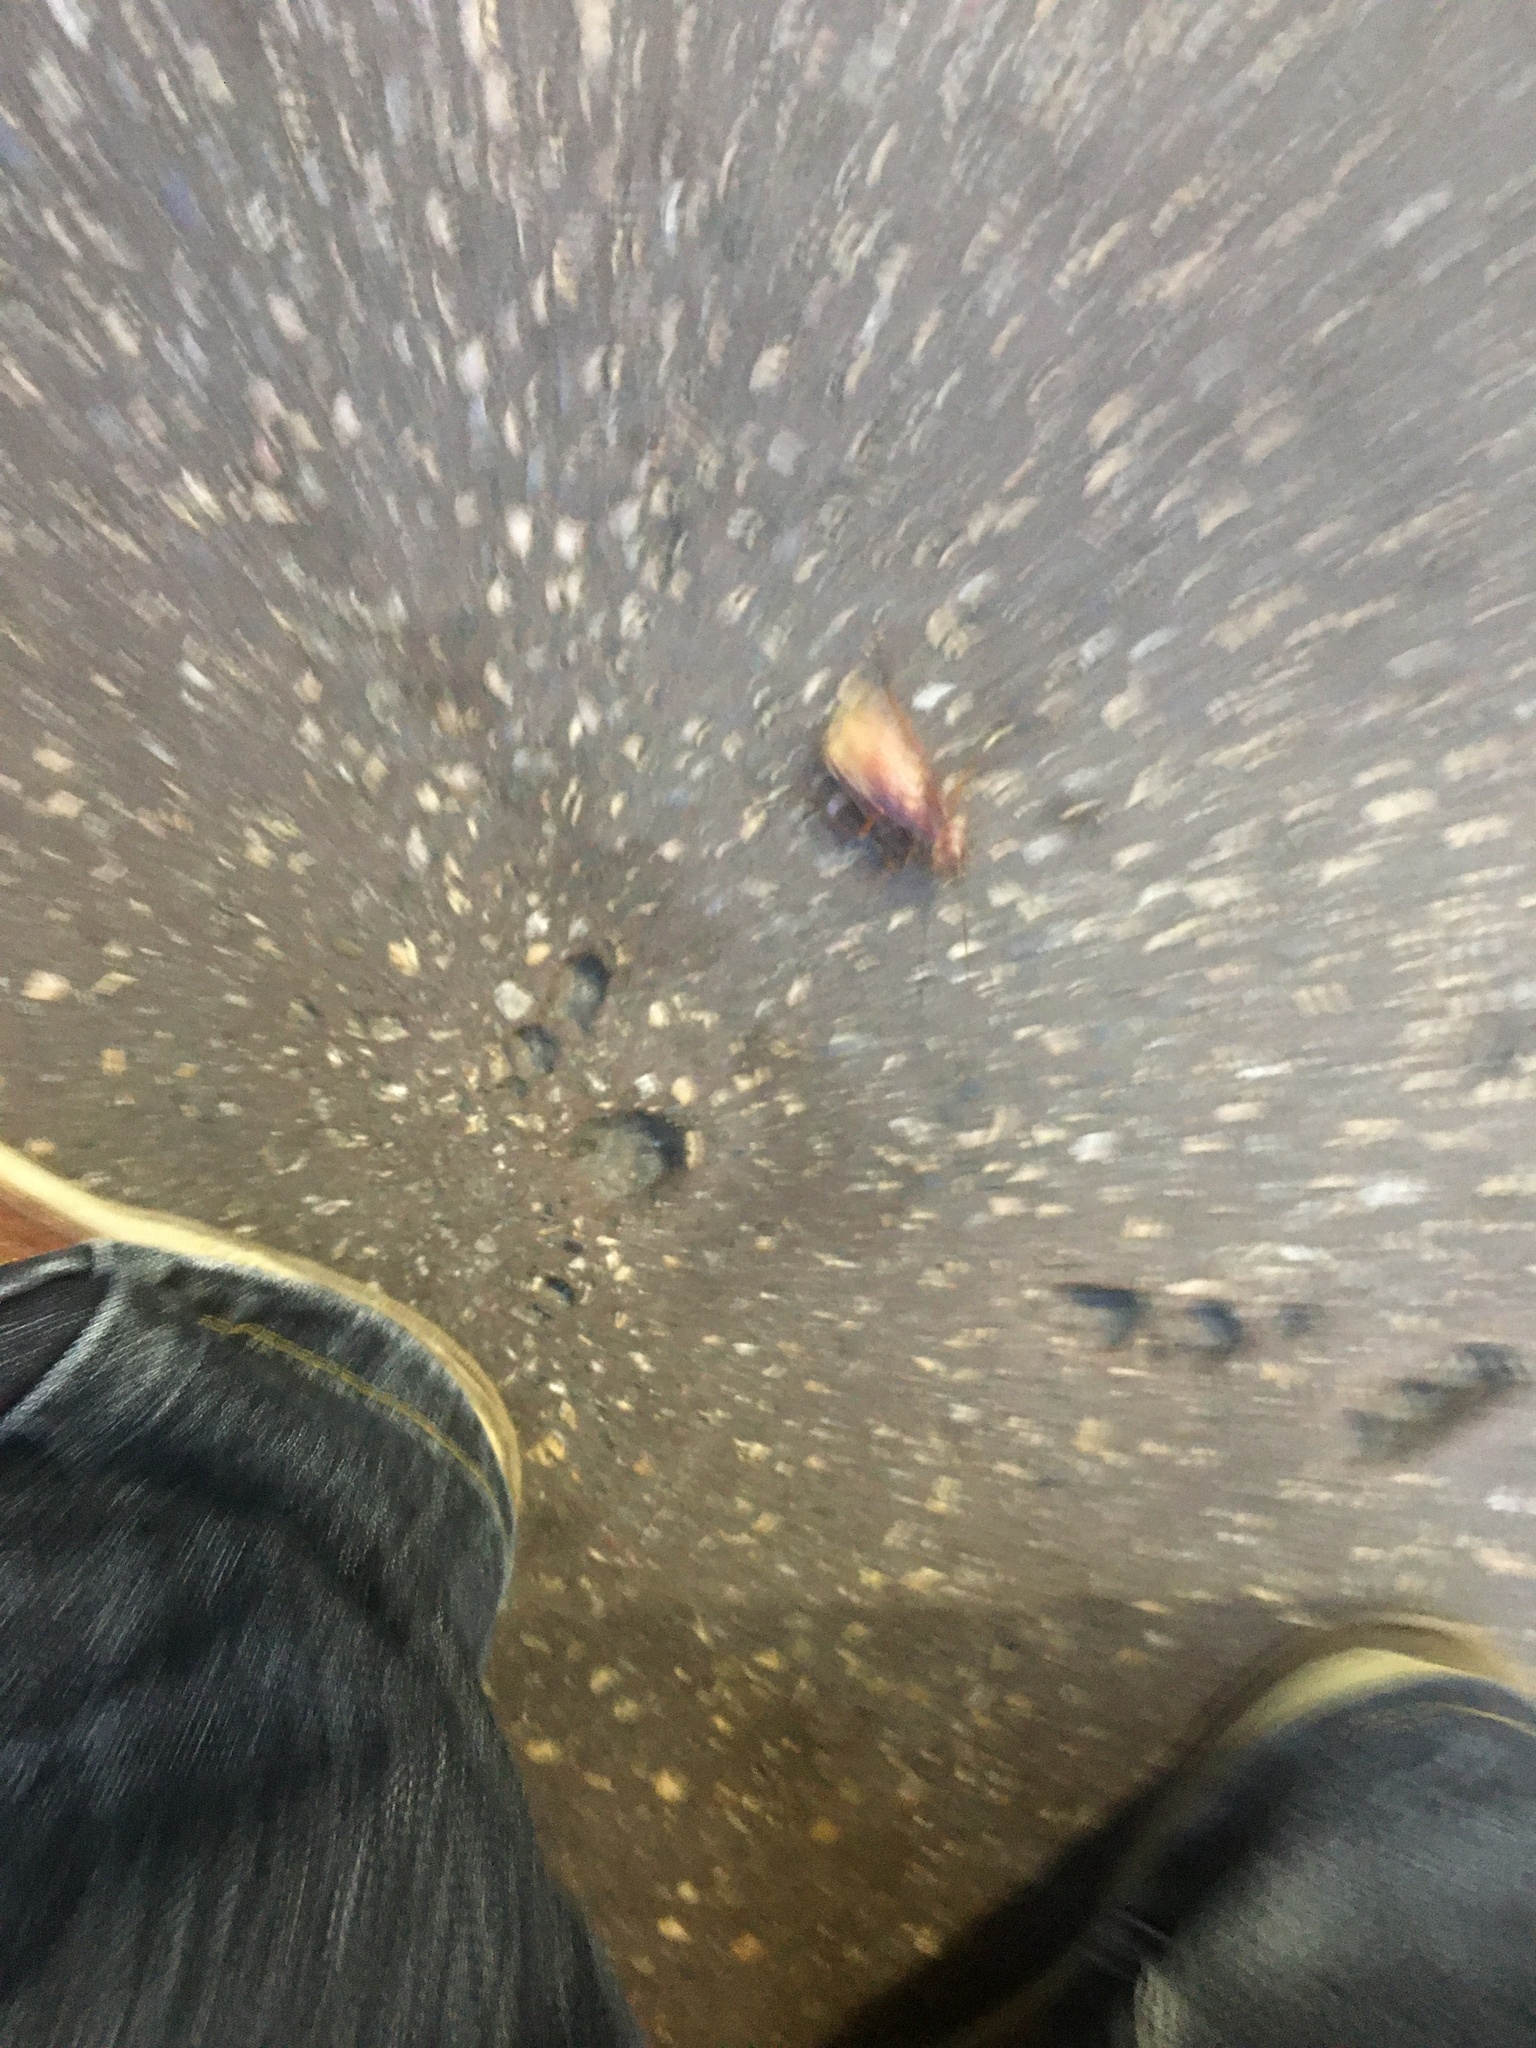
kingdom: Animalia
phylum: Arthropoda
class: Insecta
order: Blattodea
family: Blattidae
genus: Periplaneta
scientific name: Periplaneta americana
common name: American cockroach
